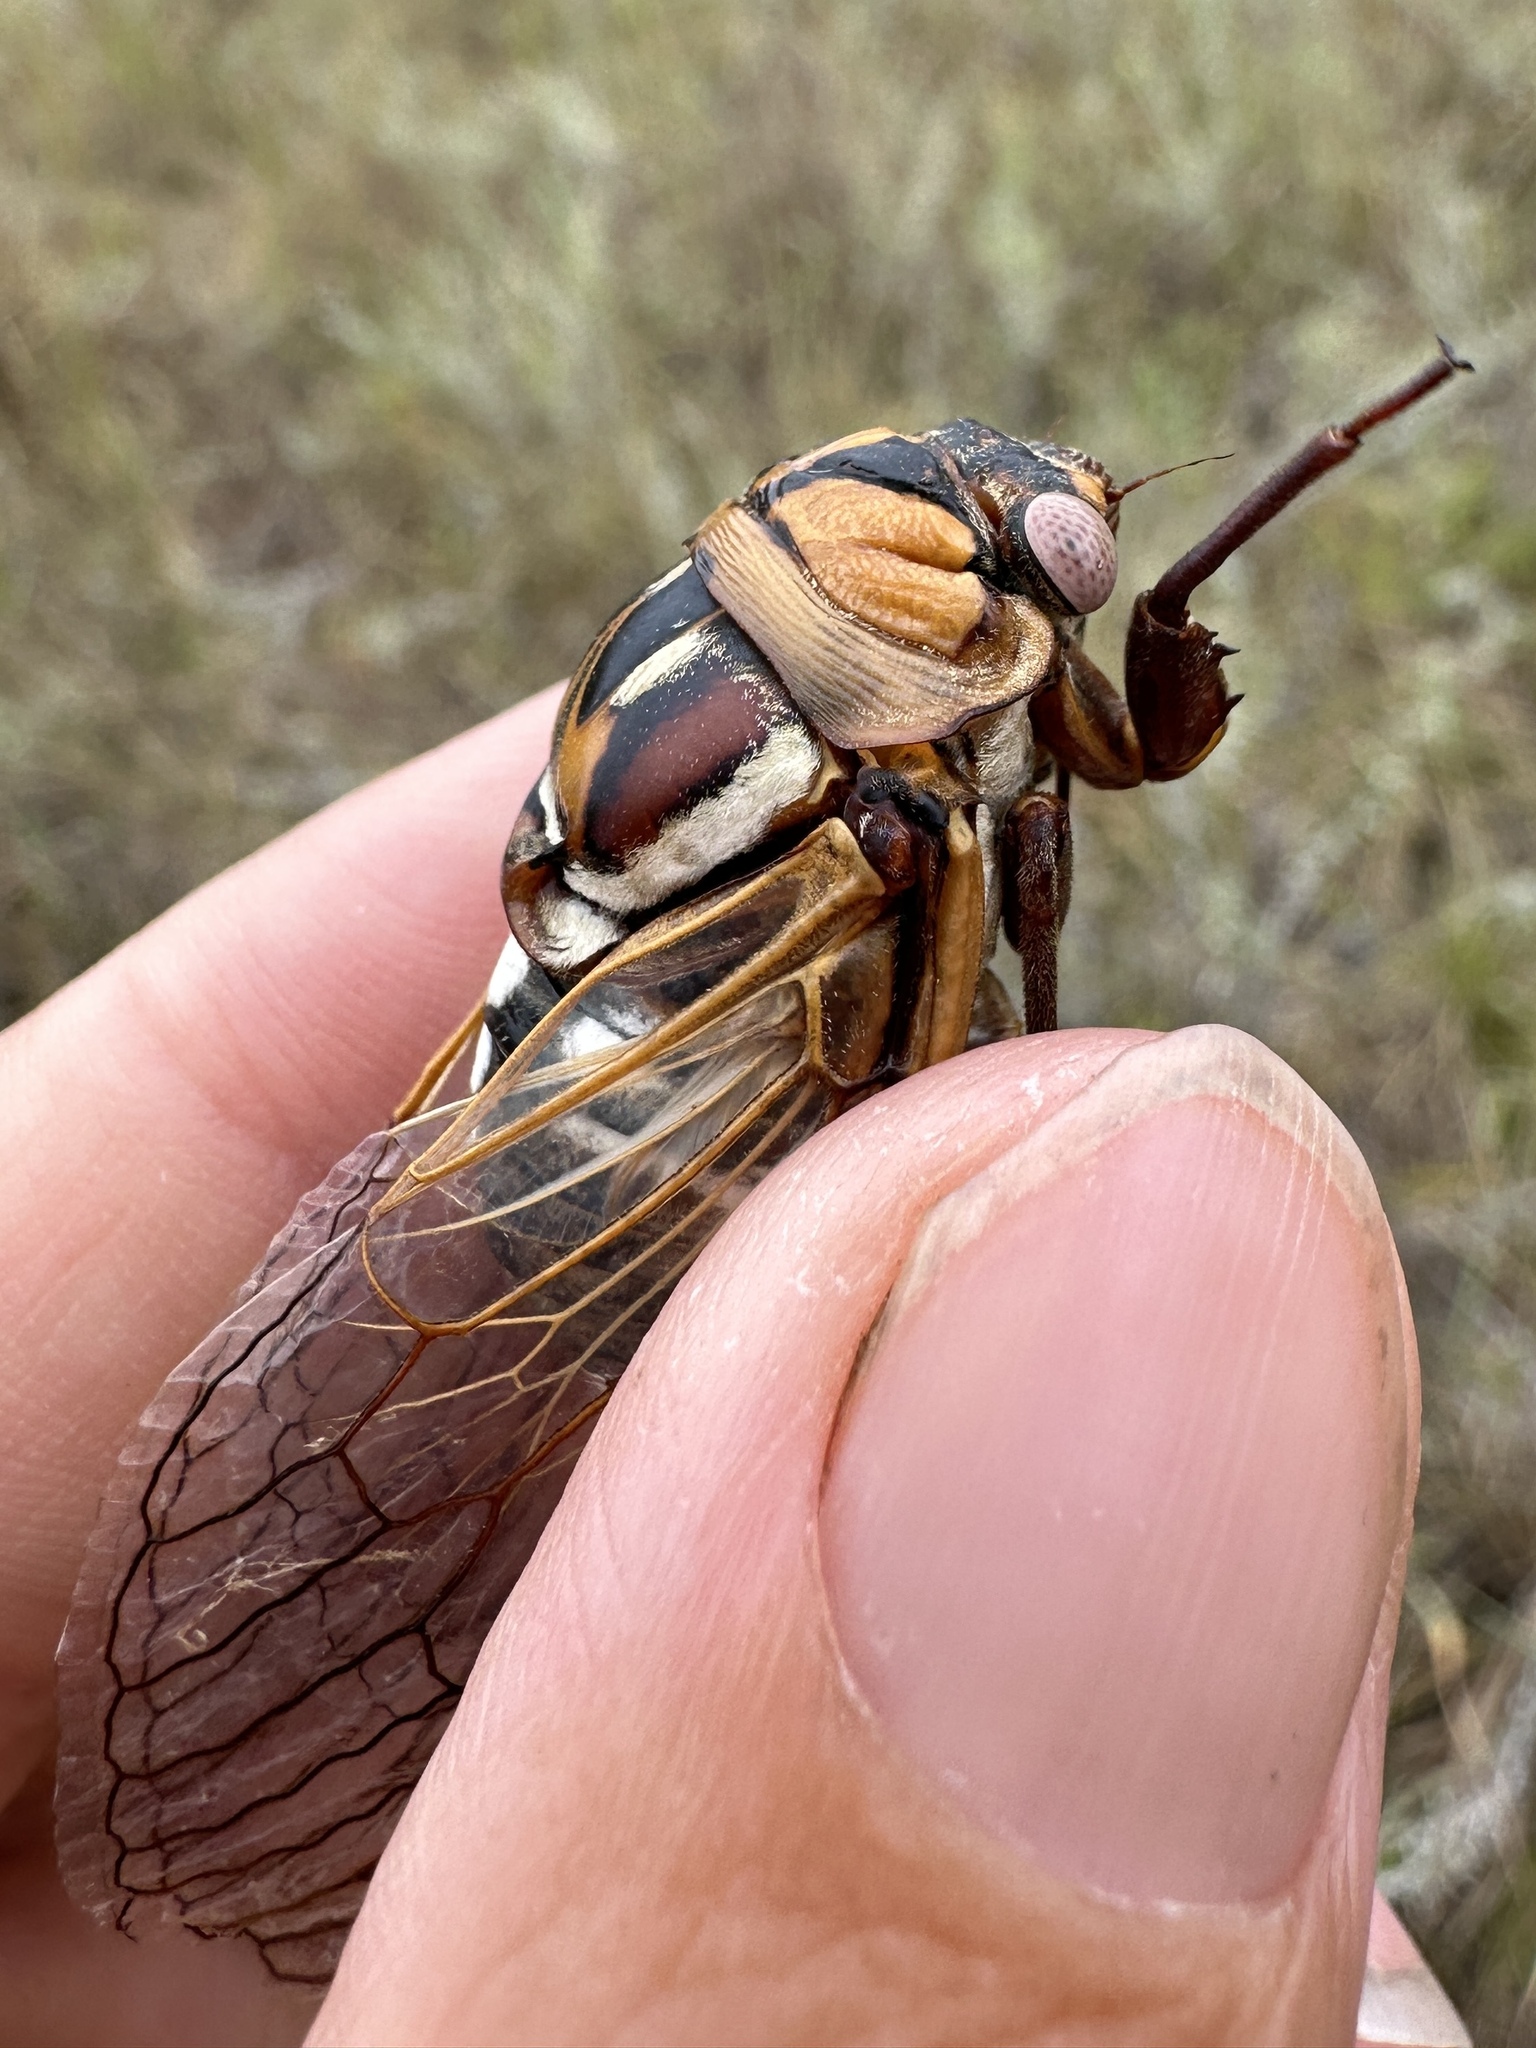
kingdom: Animalia
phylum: Arthropoda
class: Insecta
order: Hemiptera
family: Cicadidae
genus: Megatibicen
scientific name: Megatibicen dorsatus
